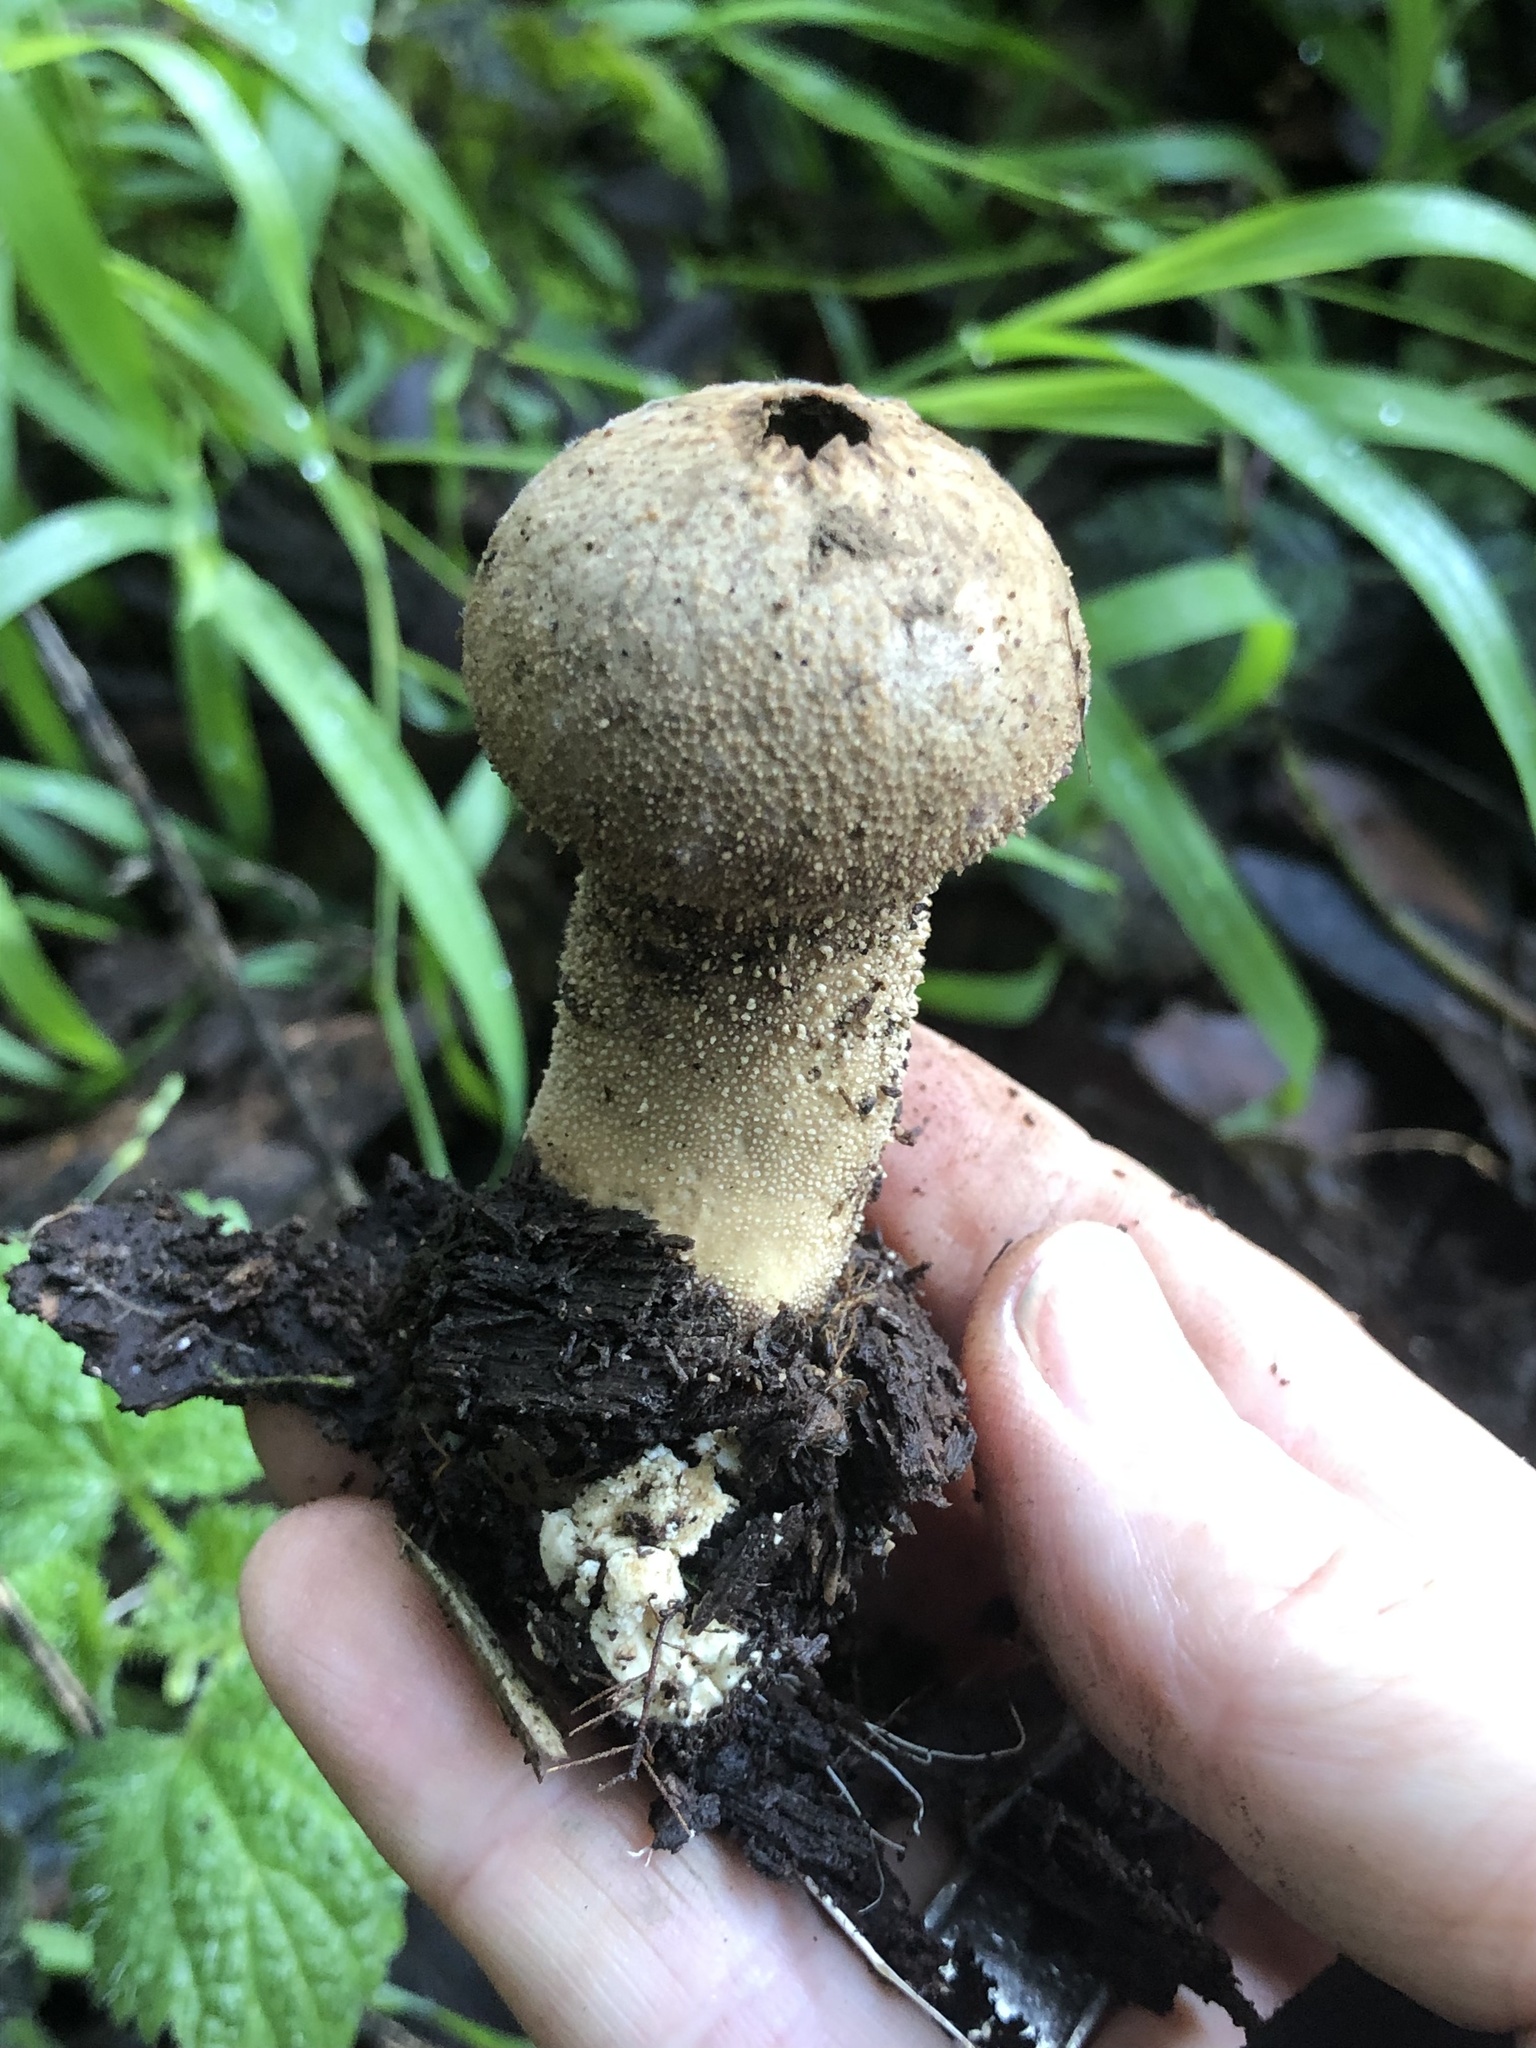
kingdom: Fungi
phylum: Basidiomycota
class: Agaricomycetes
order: Agaricales
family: Lycoperdaceae
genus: Lycoperdon
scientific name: Lycoperdon perlatum
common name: Common puffball
